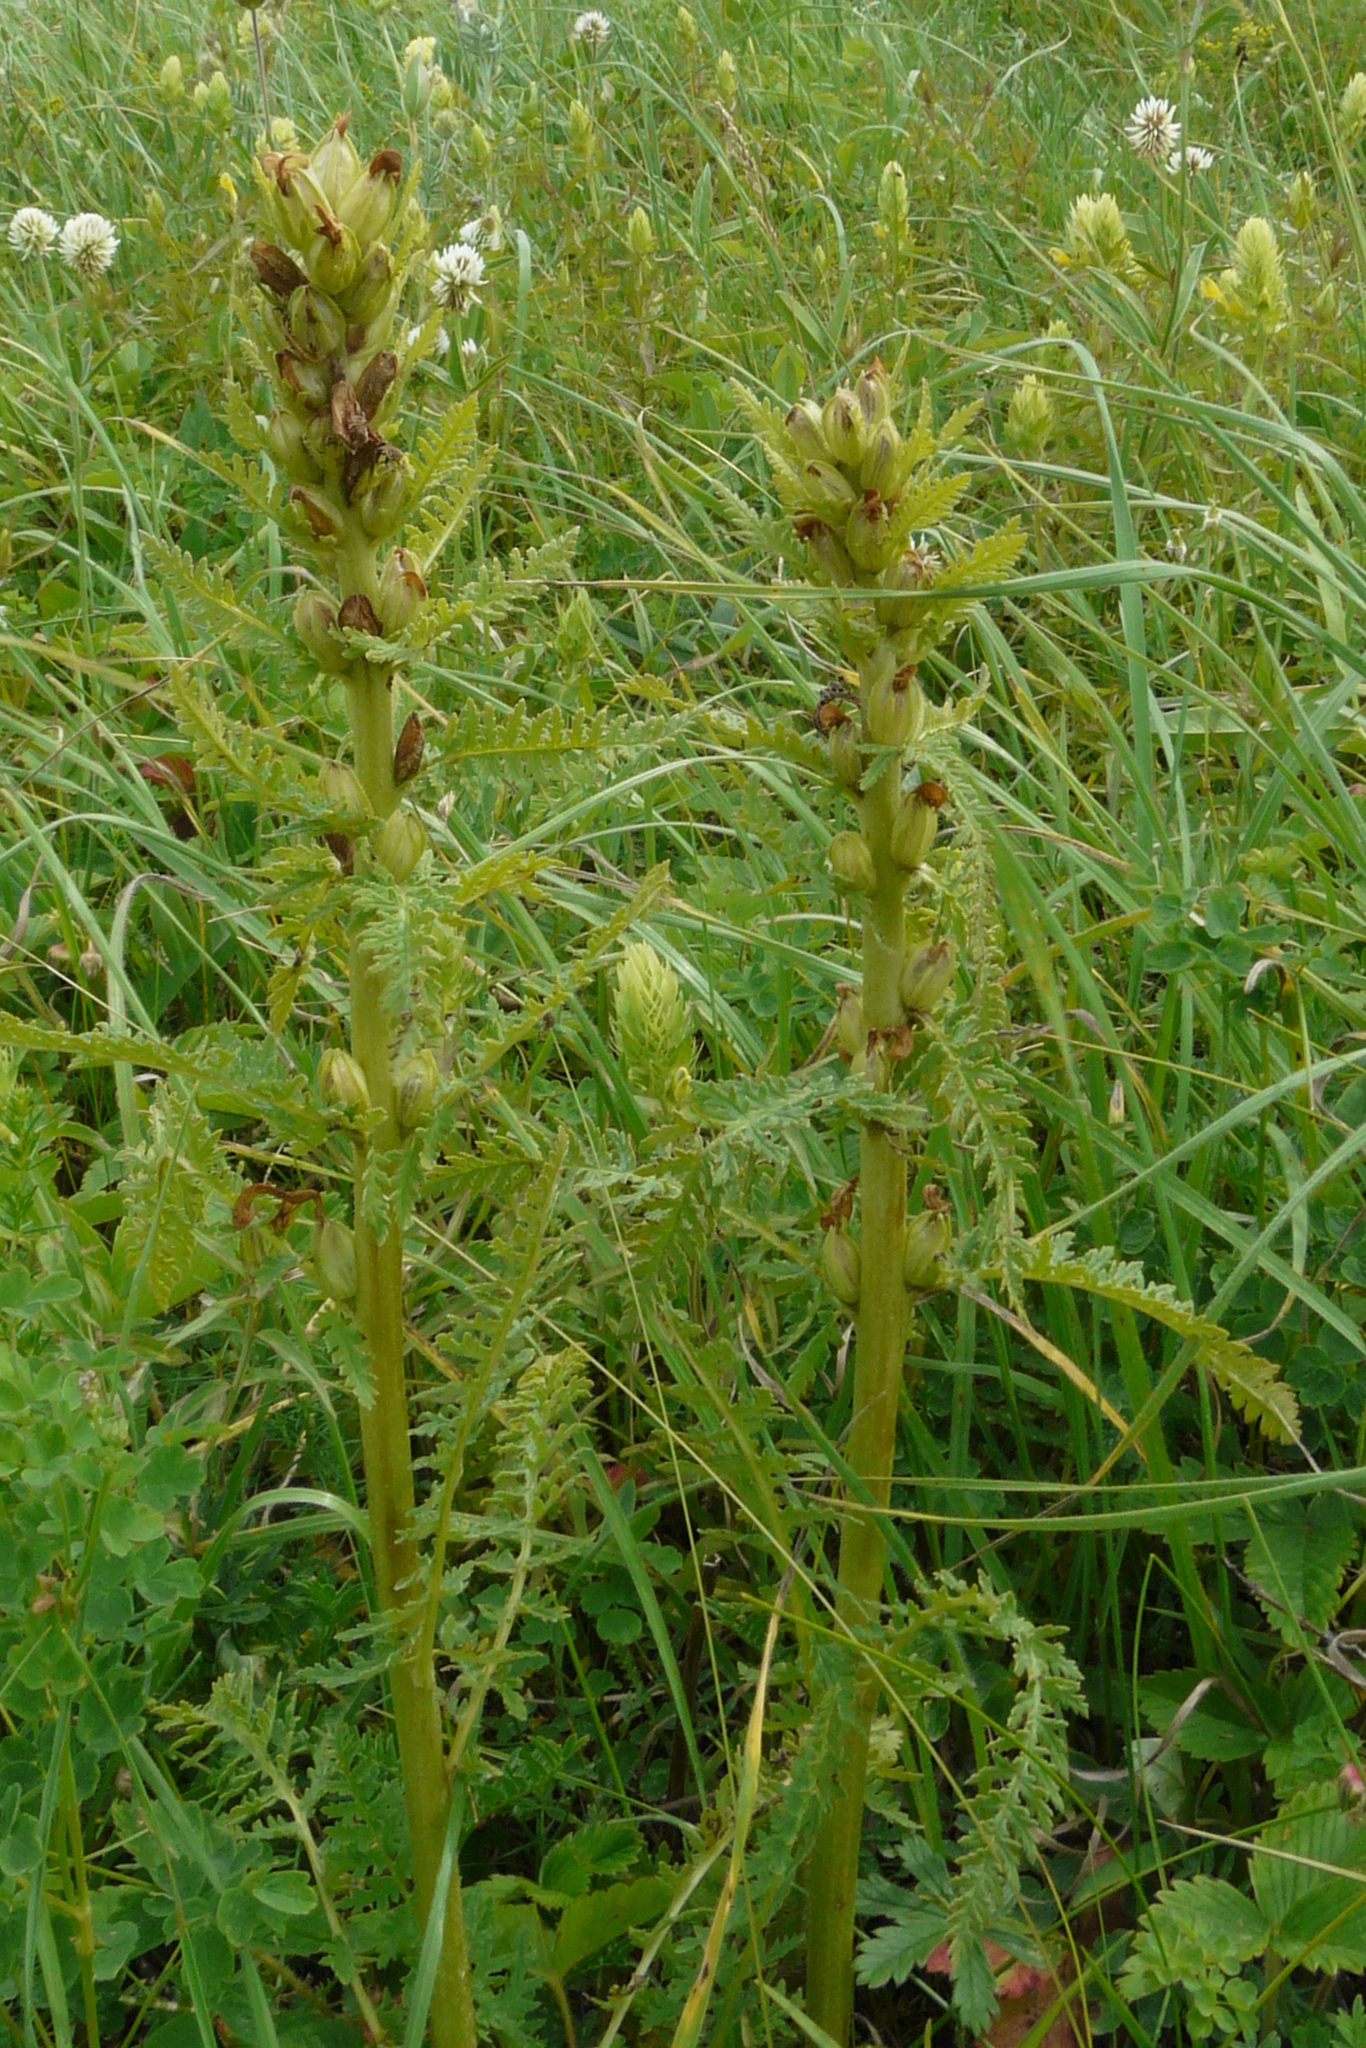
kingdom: Plantae
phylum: Tracheophyta
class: Magnoliopsida
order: Lamiales
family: Orobanchaceae
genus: Pedicularis
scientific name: Pedicularis kaufmannii
